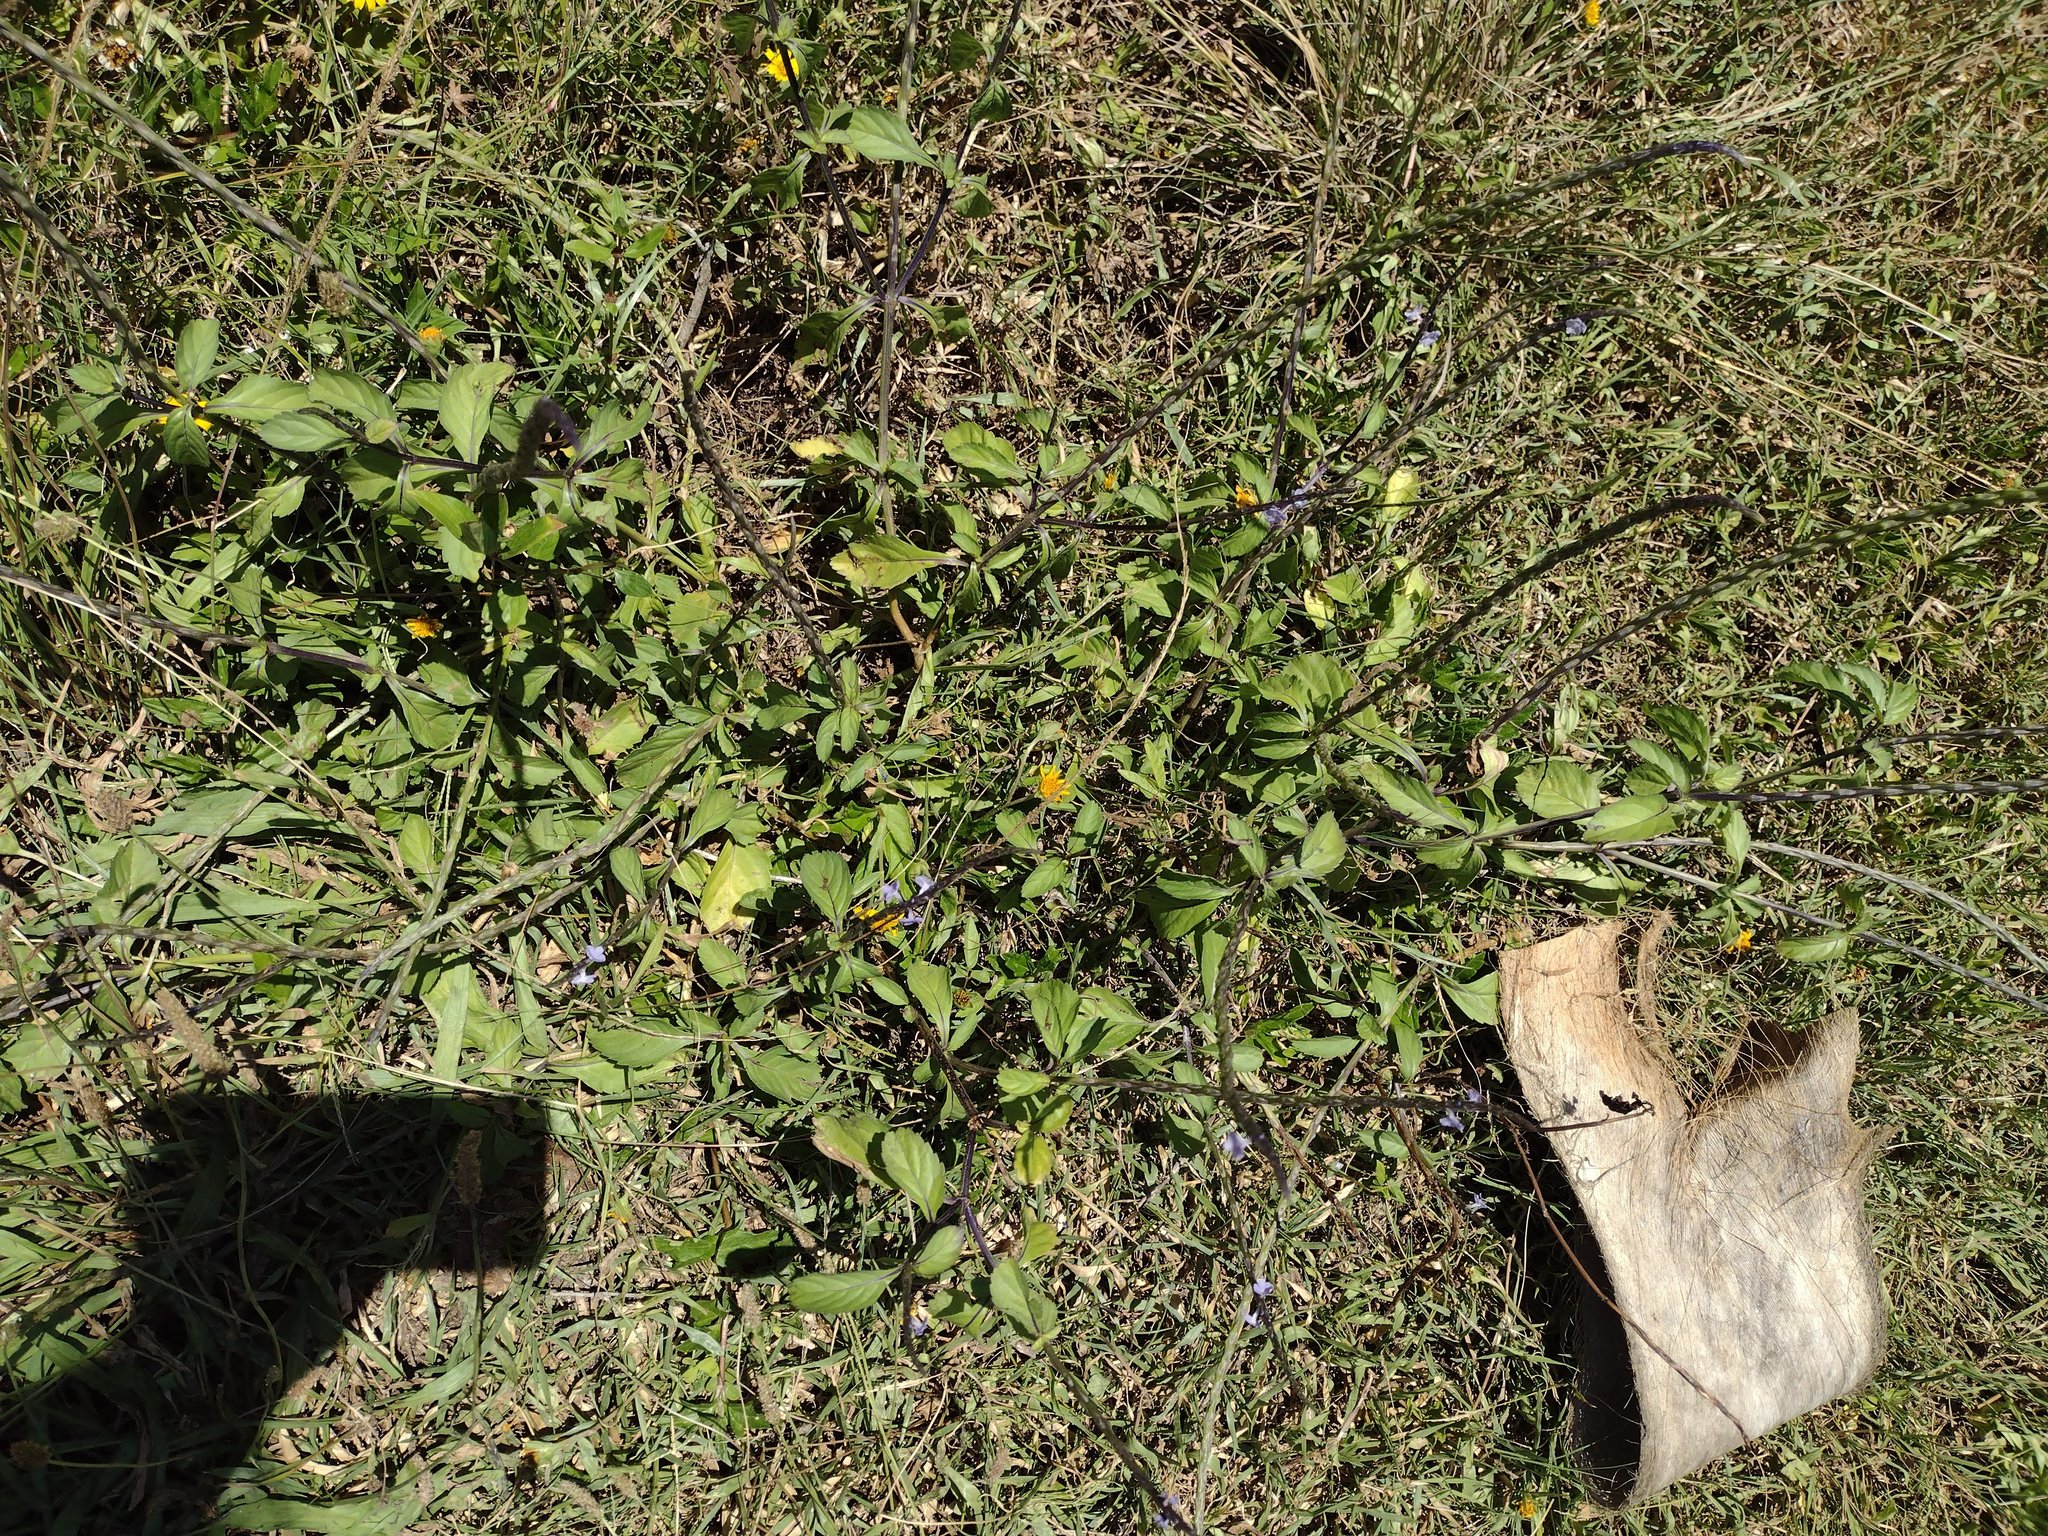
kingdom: Plantae
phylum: Tracheophyta
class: Magnoliopsida
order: Lamiales
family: Verbenaceae
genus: Stachytarpheta
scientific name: Stachytarpheta jamaicensis
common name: Light-blue snakeweed
